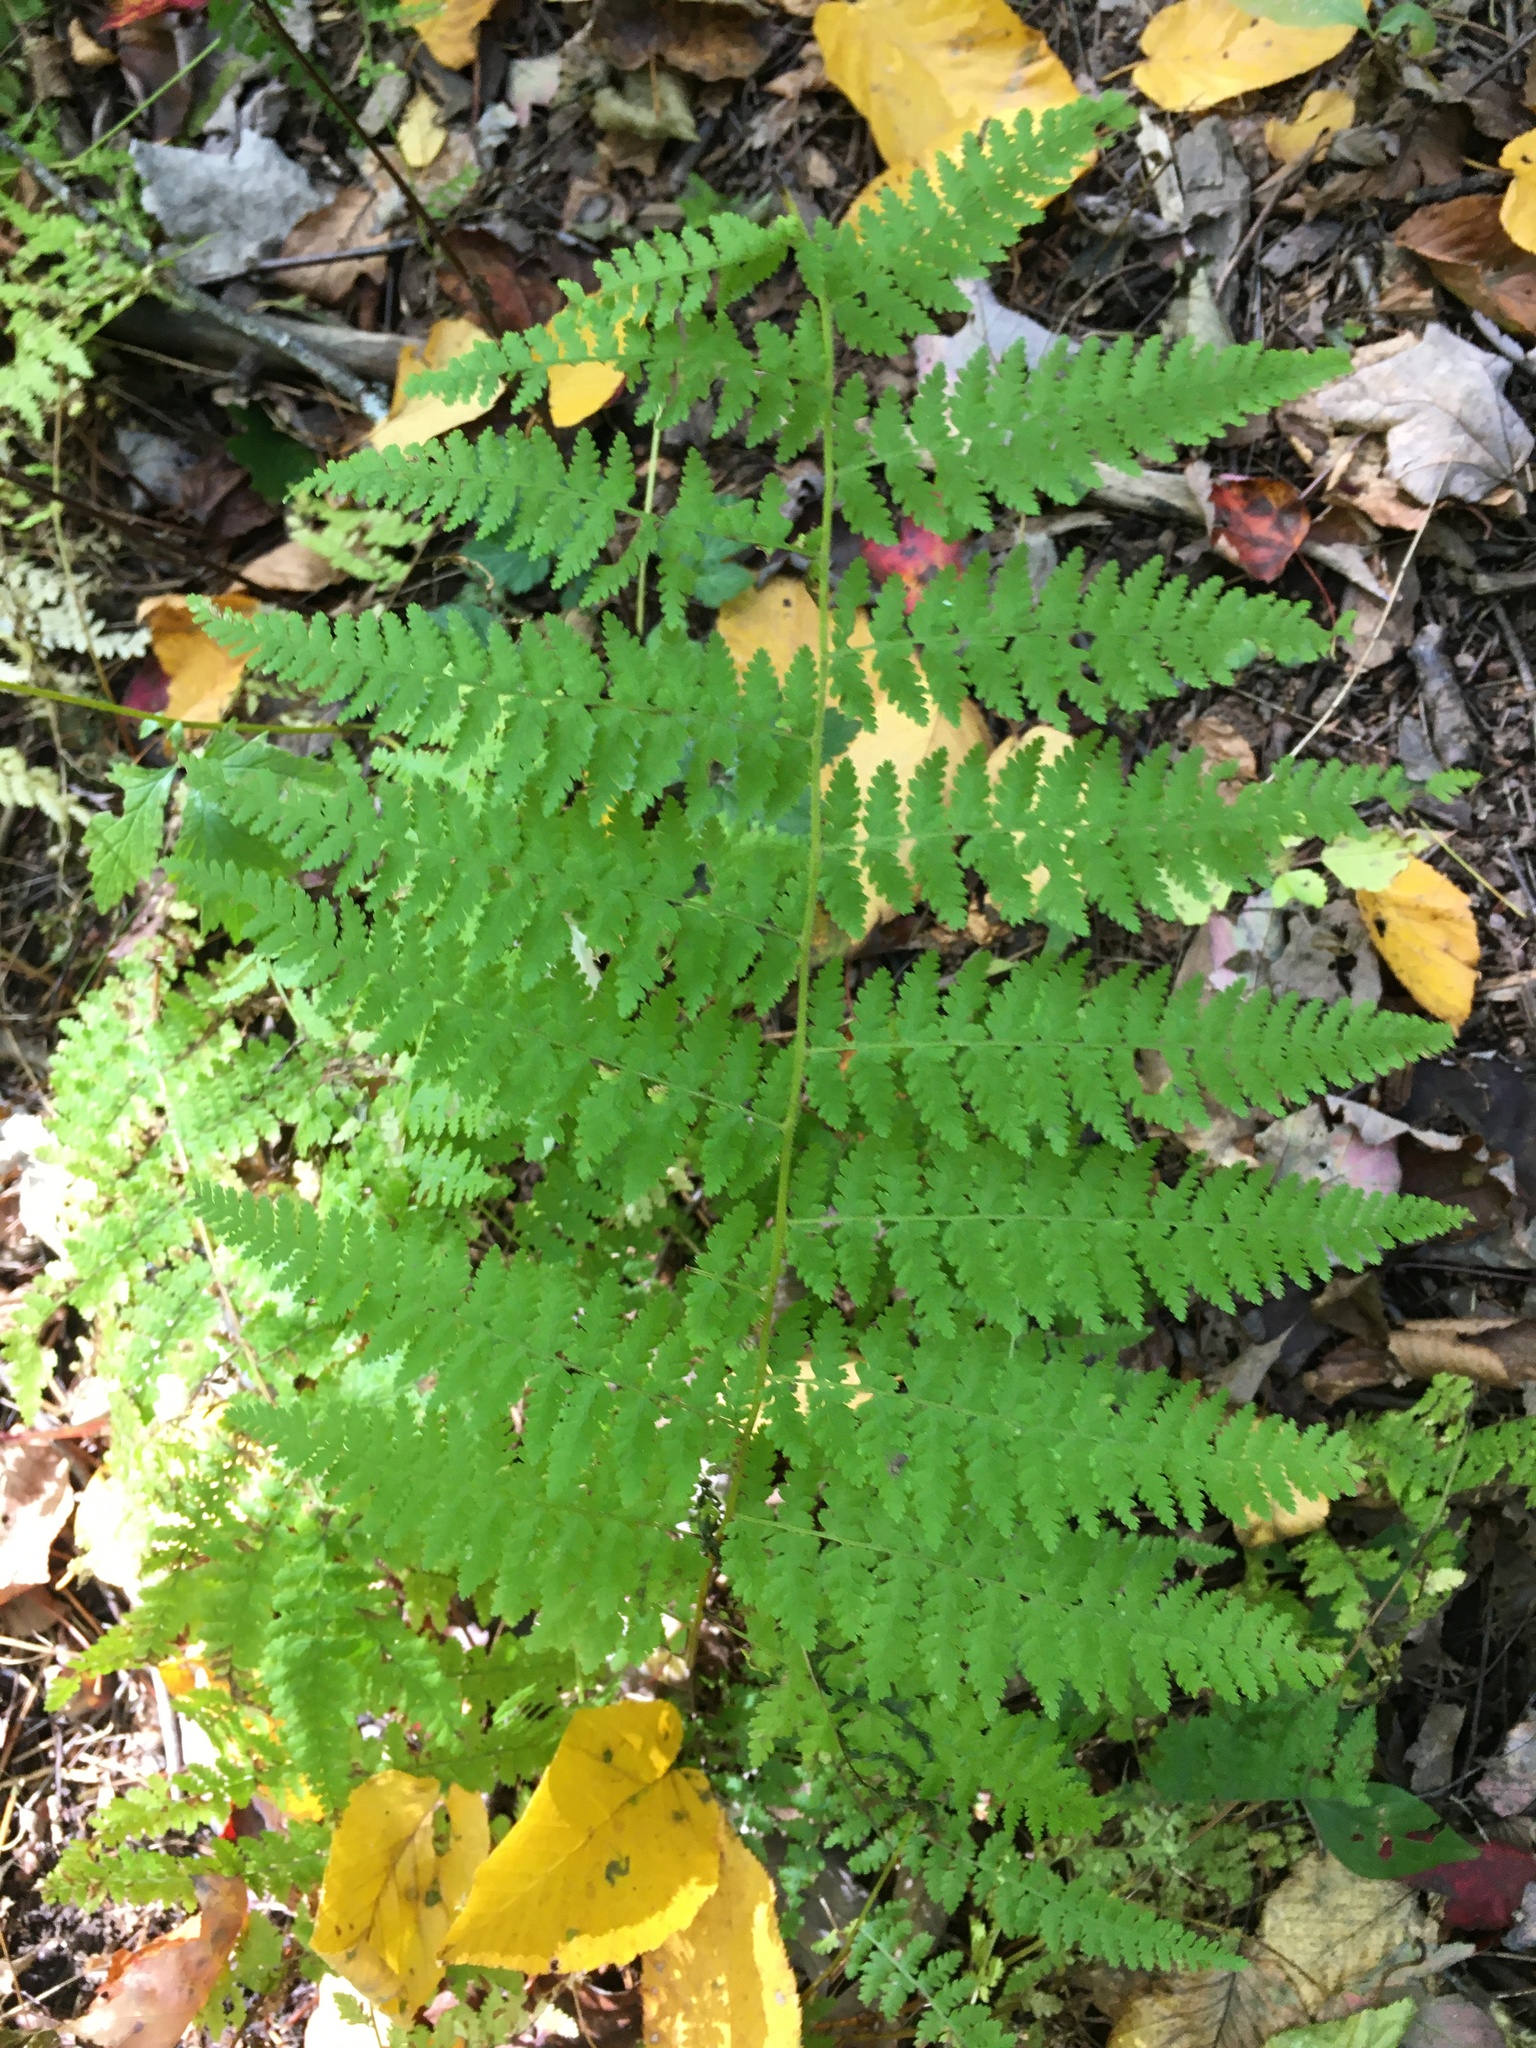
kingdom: Plantae
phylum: Tracheophyta
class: Polypodiopsida
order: Polypodiales
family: Dennstaedtiaceae
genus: Sitobolium
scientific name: Sitobolium punctilobum
